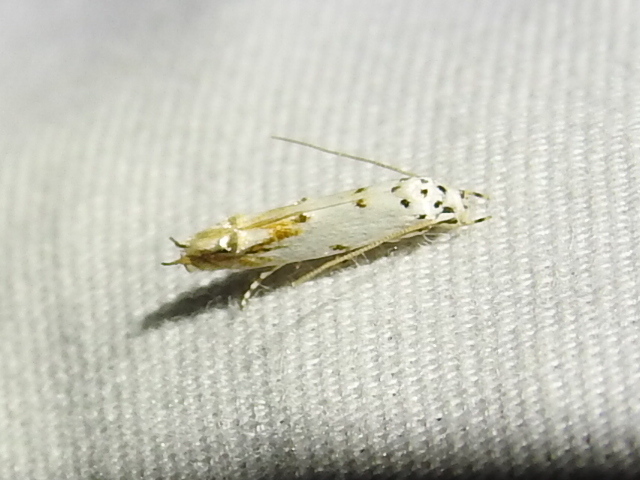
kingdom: Animalia
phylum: Arthropoda
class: Insecta
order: Lepidoptera
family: Momphidae
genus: Mompha
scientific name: Mompha eloisella
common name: Red-streaked mompha moth
